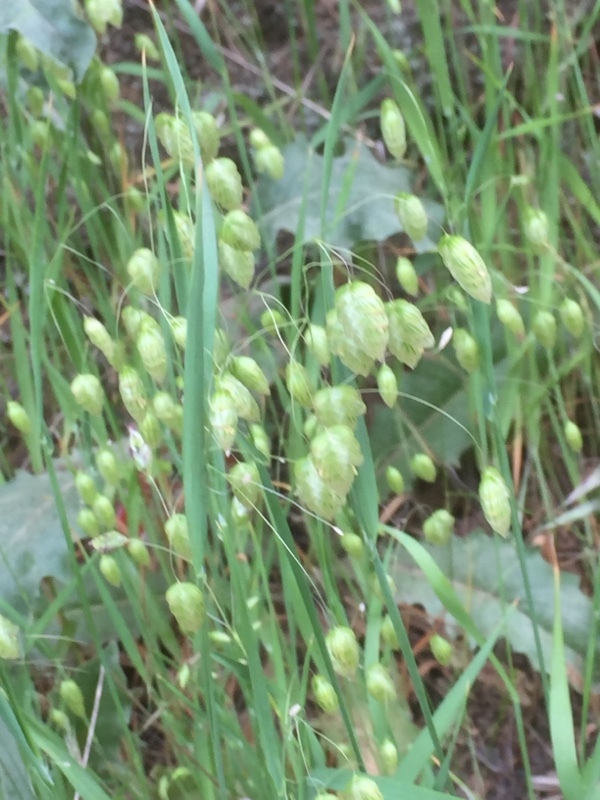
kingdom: Plantae
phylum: Tracheophyta
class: Liliopsida
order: Poales
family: Poaceae
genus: Briza
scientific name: Briza maxima
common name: Big quakinggrass
